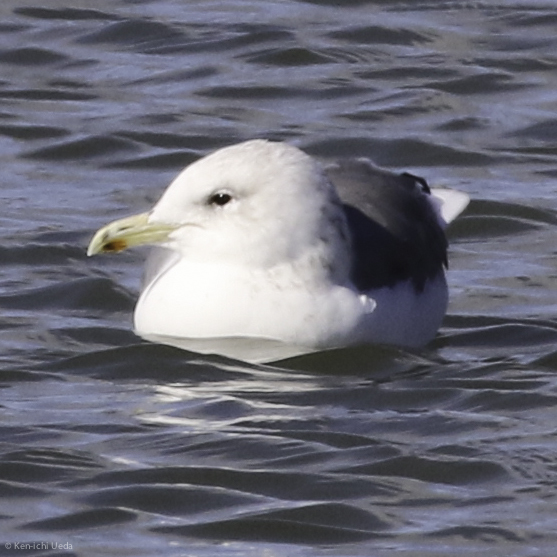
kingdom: Animalia
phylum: Chordata
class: Aves
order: Charadriiformes
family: Laridae
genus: Larus
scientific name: Larus californicus
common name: California gull
